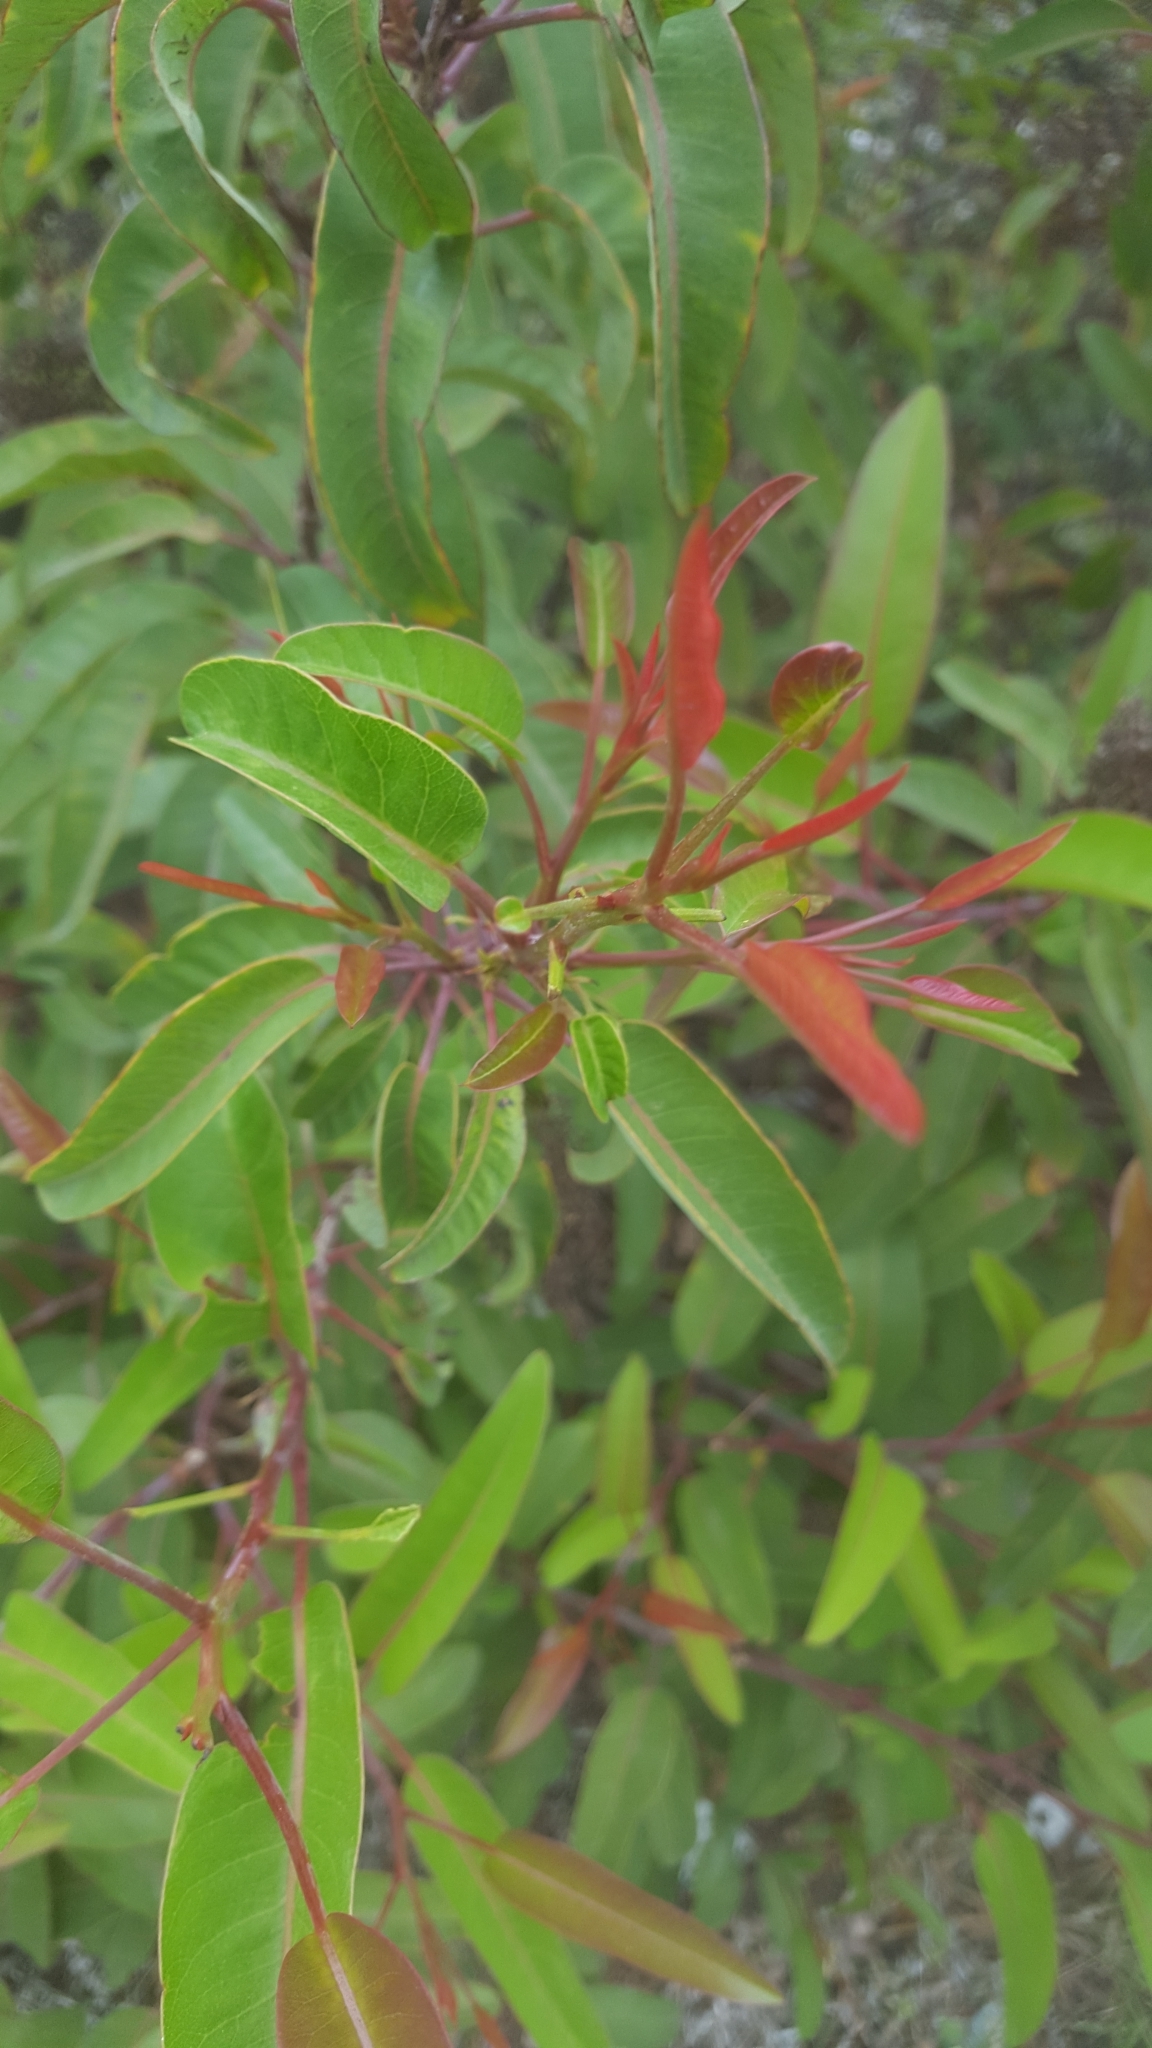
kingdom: Plantae
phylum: Tracheophyta
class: Magnoliopsida
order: Sapindales
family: Anacardiaceae
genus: Malosma
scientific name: Malosma laurina
